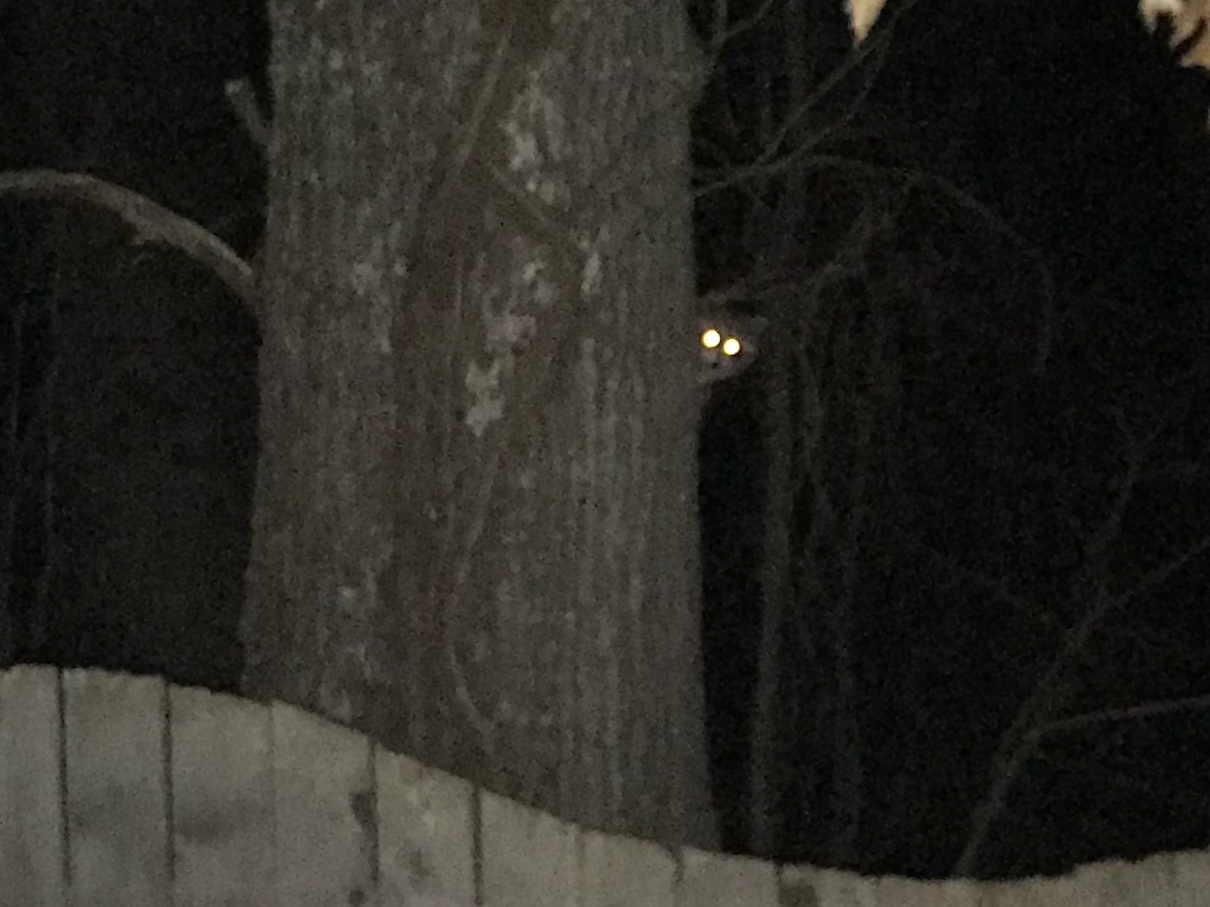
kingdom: Animalia
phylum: Chordata
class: Mammalia
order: Carnivora
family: Procyonidae
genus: Procyon
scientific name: Procyon lotor
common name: Raccoon
